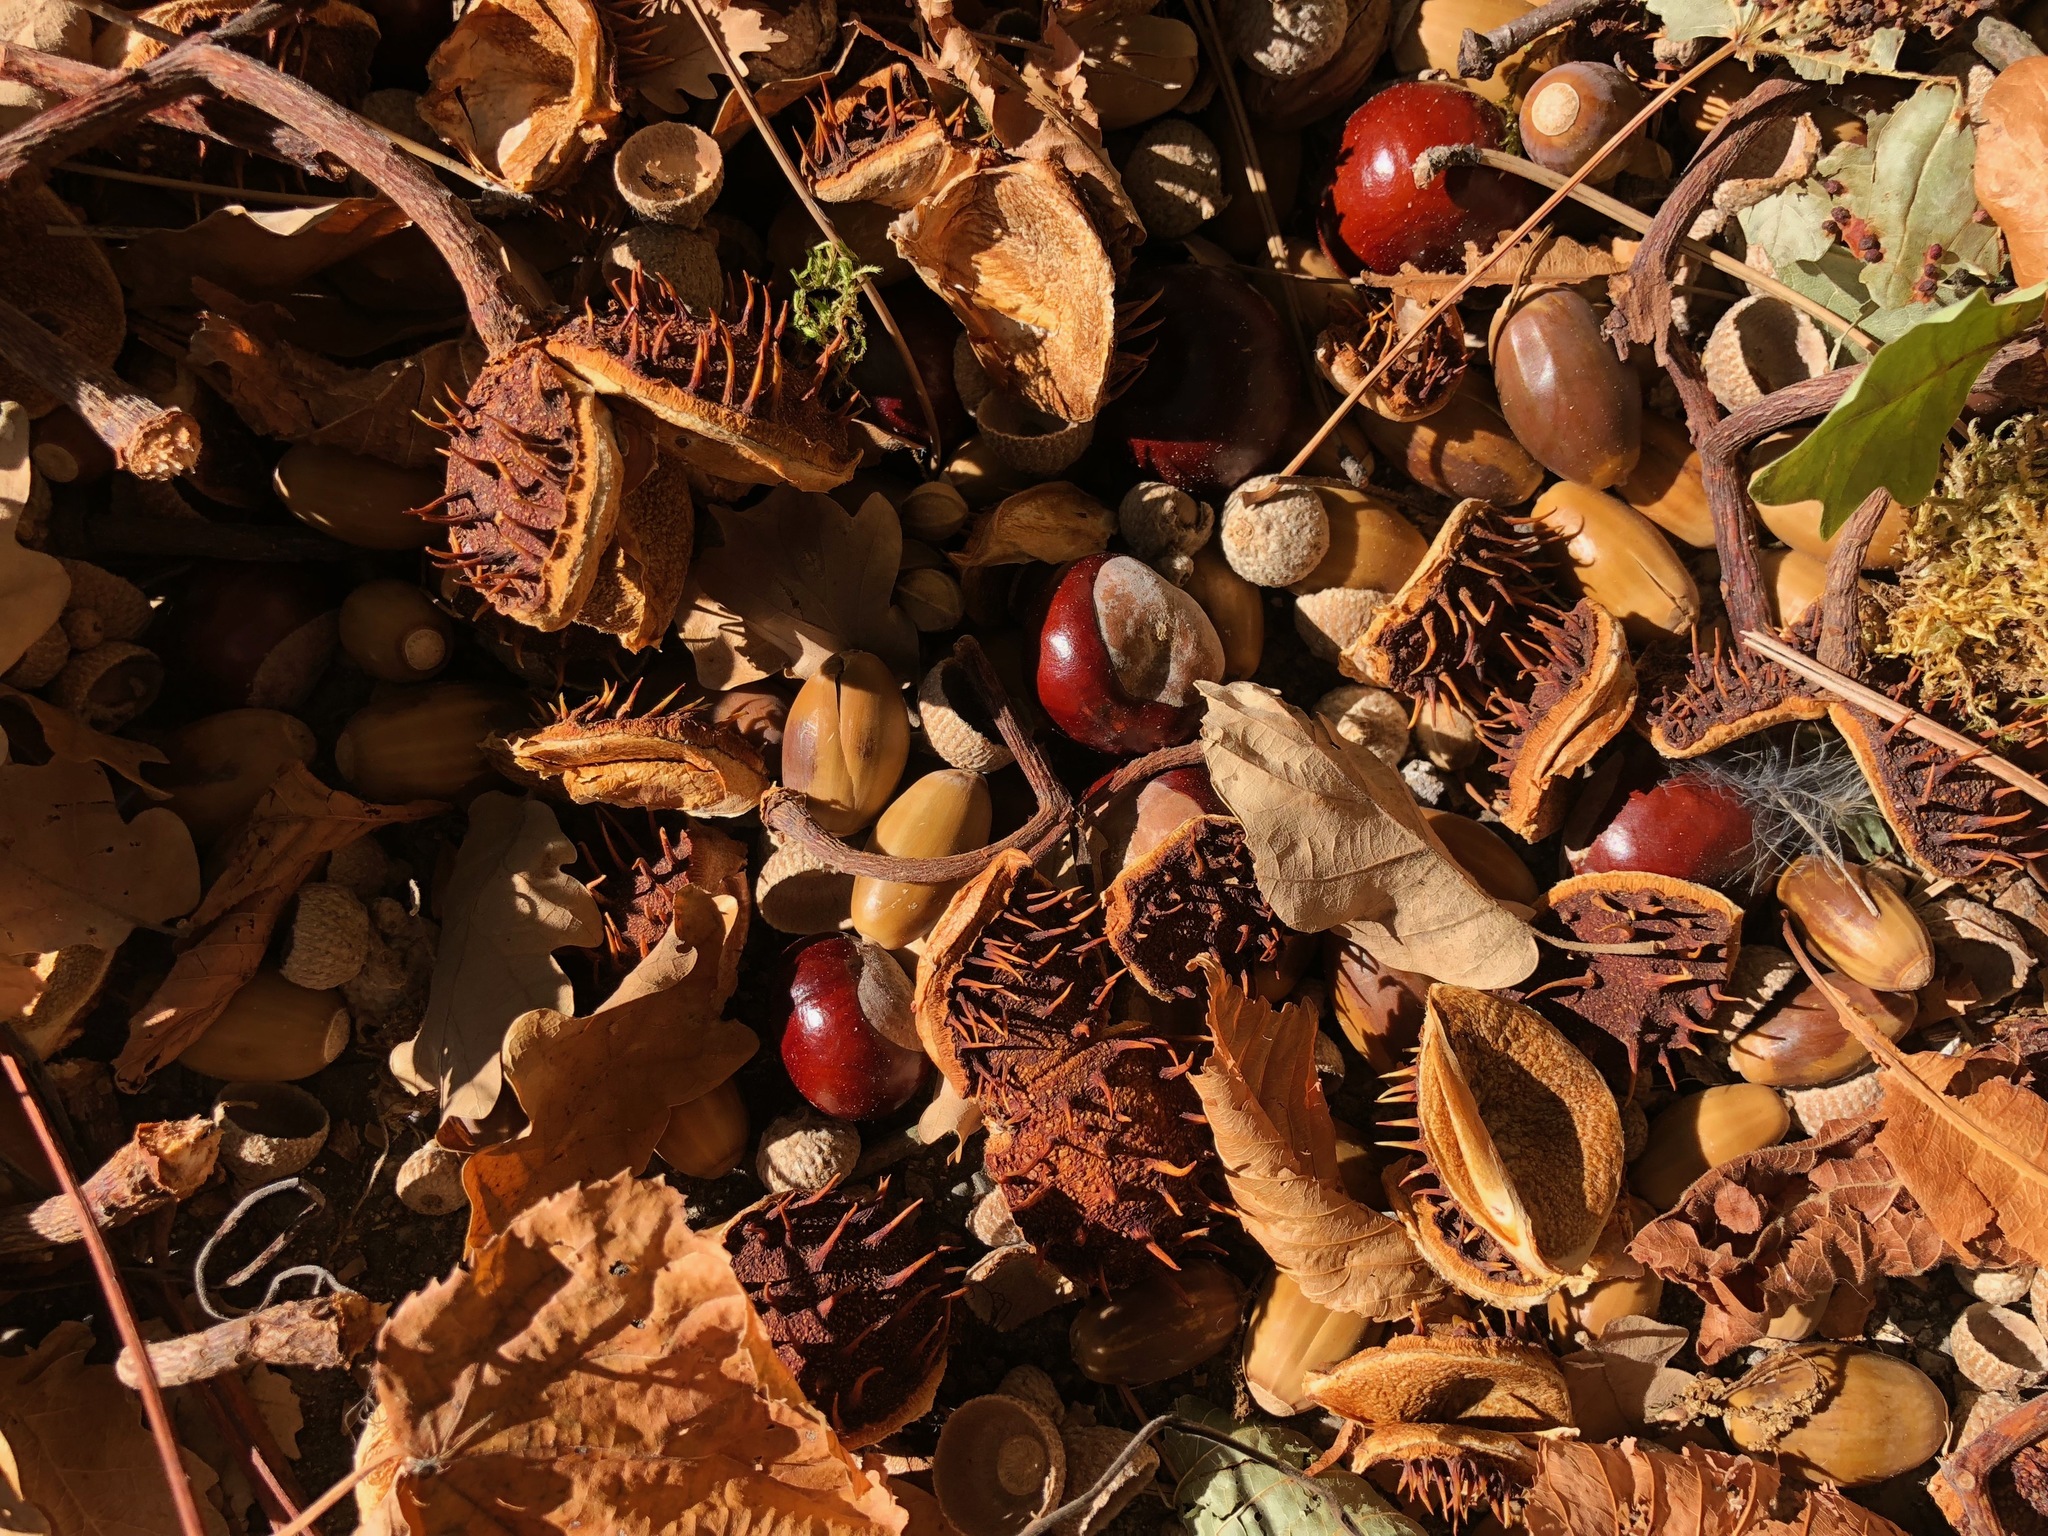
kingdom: Plantae
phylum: Tracheophyta
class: Magnoliopsida
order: Sapindales
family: Sapindaceae
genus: Aesculus
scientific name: Aesculus hippocastanum
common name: Horse-chestnut
